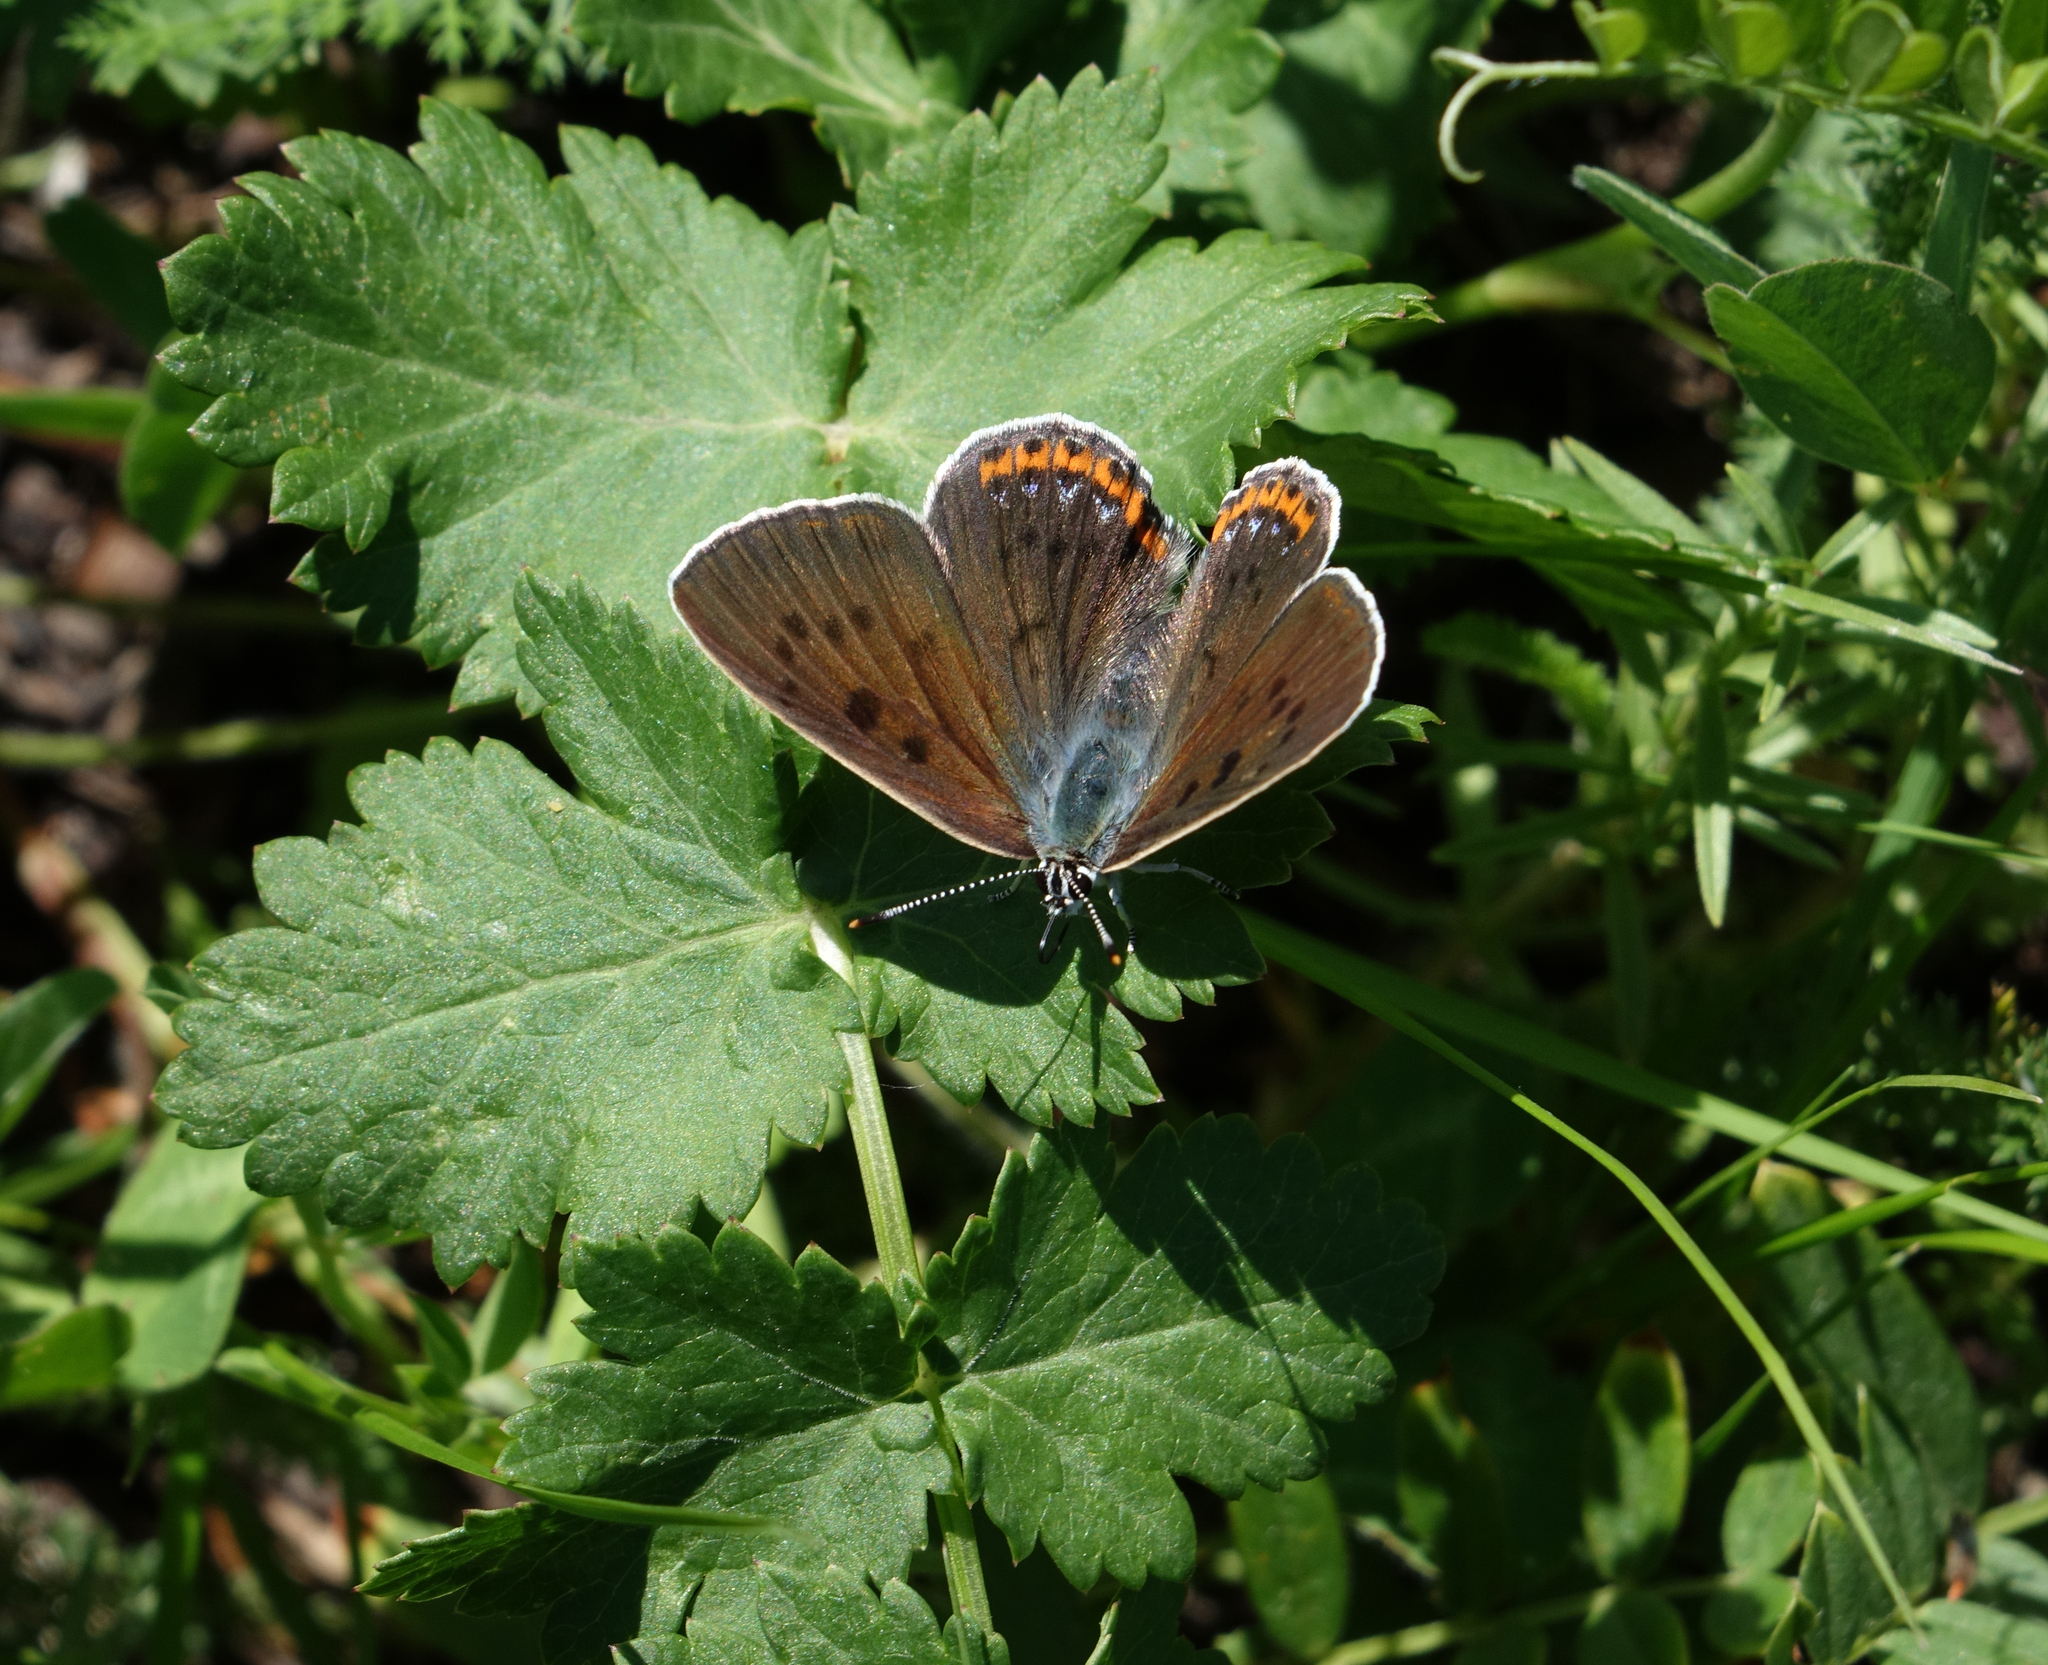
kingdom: Animalia
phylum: Arthropoda
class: Insecta
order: Lepidoptera
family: Lycaenidae
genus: Lycaena
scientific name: Lycaena alciphron
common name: Purple-shot copper
